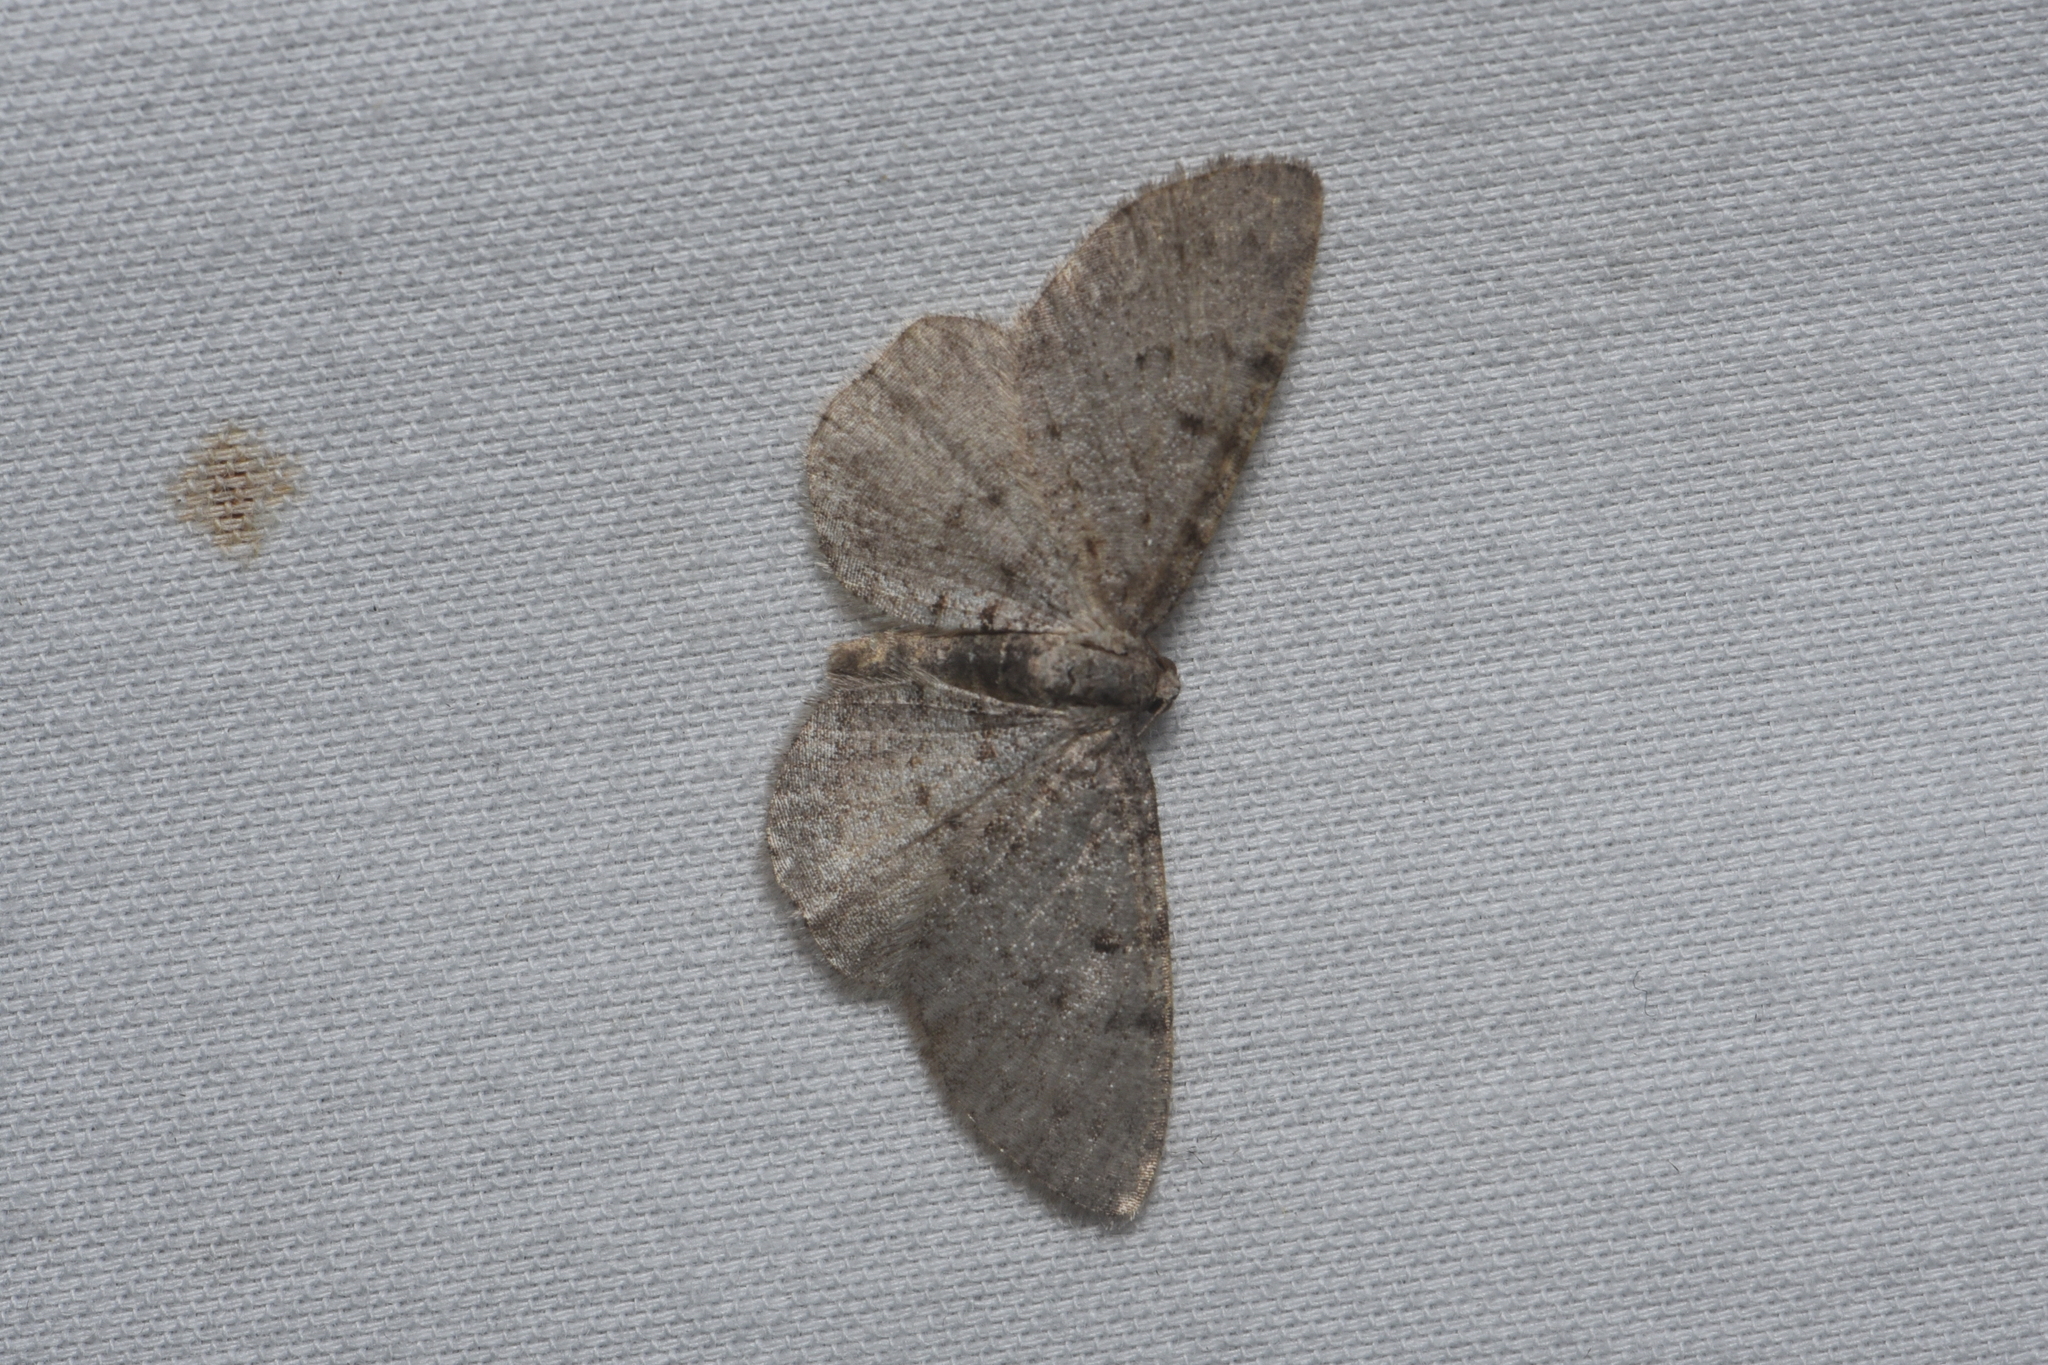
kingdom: Animalia
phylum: Arthropoda
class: Insecta
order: Lepidoptera
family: Geometridae
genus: Aethalura
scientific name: Aethalura intertexta
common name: Four-barred gray
